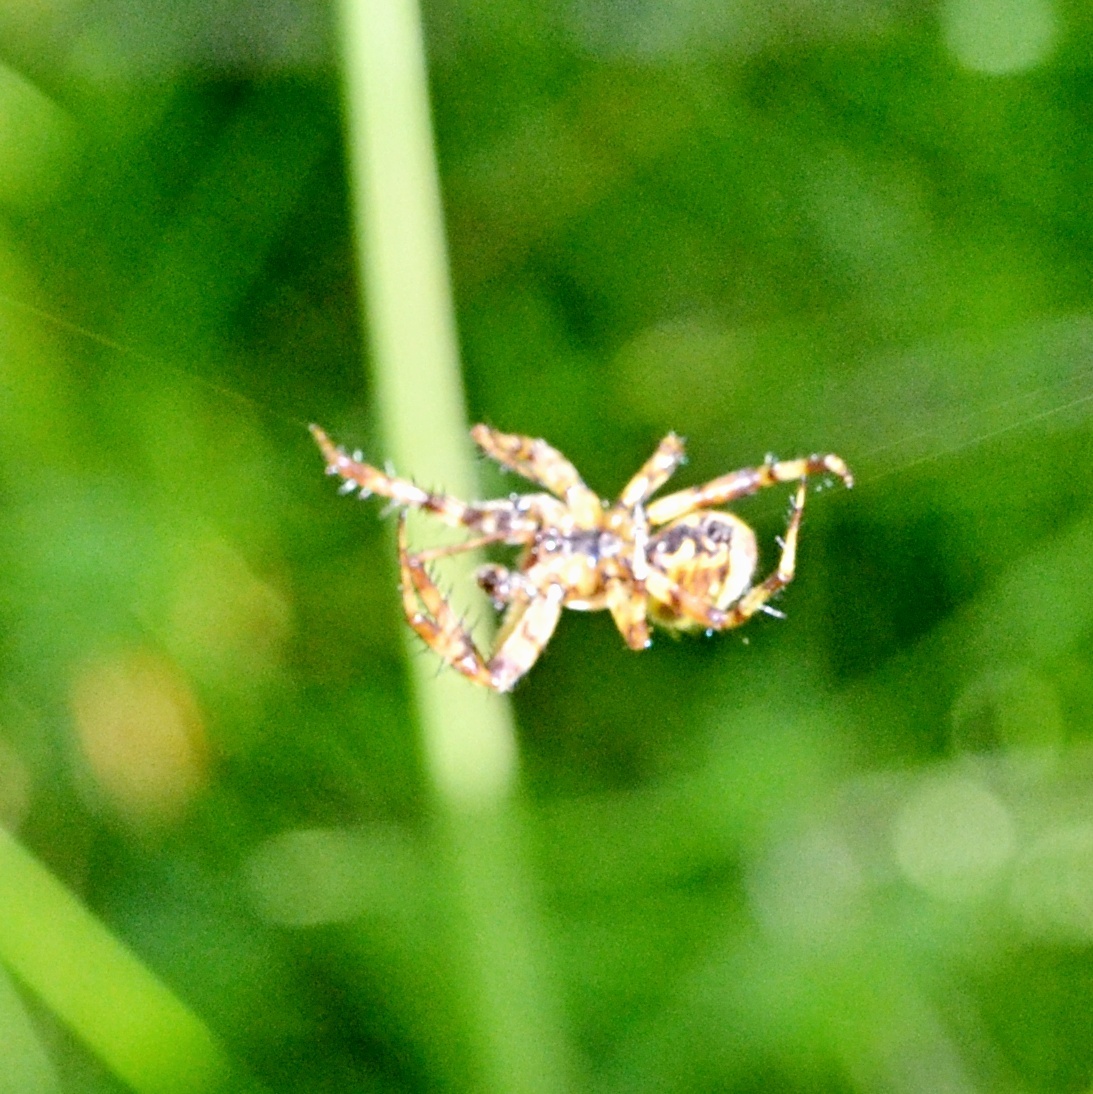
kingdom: Animalia
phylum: Arthropoda
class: Arachnida
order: Araneae
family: Araneidae
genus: Araneus
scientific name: Araneus quadratus
